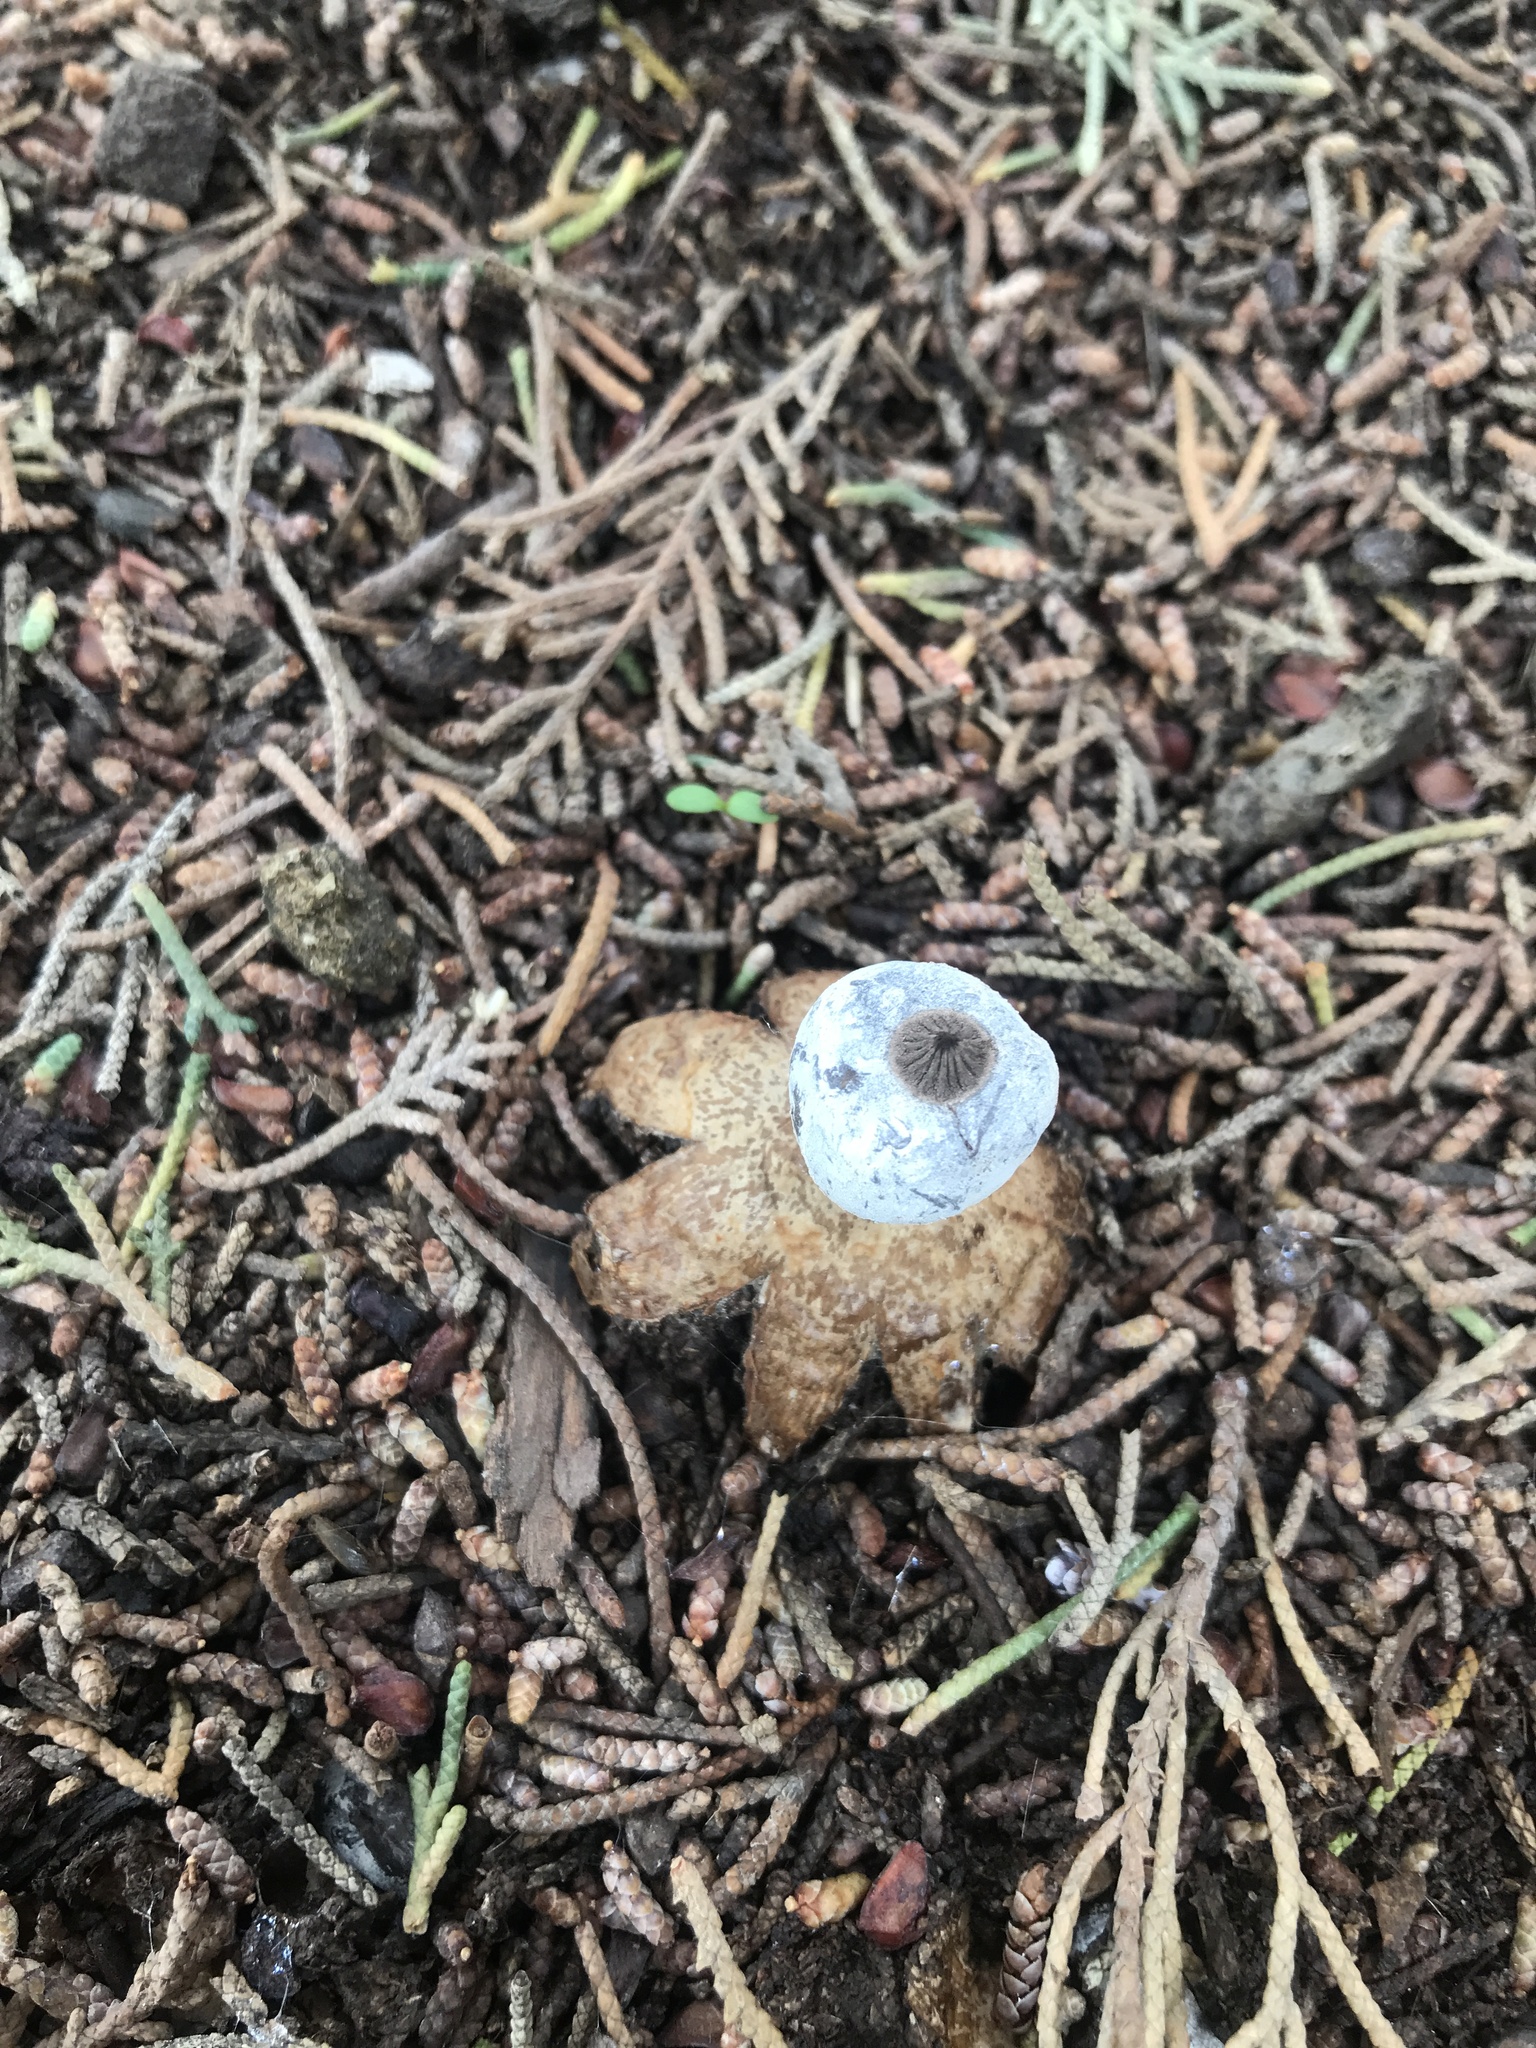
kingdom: Fungi
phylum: Basidiomycota
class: Agaricomycetes
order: Geastrales
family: Geastraceae
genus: Geastrum
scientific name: Geastrum glaucescens
